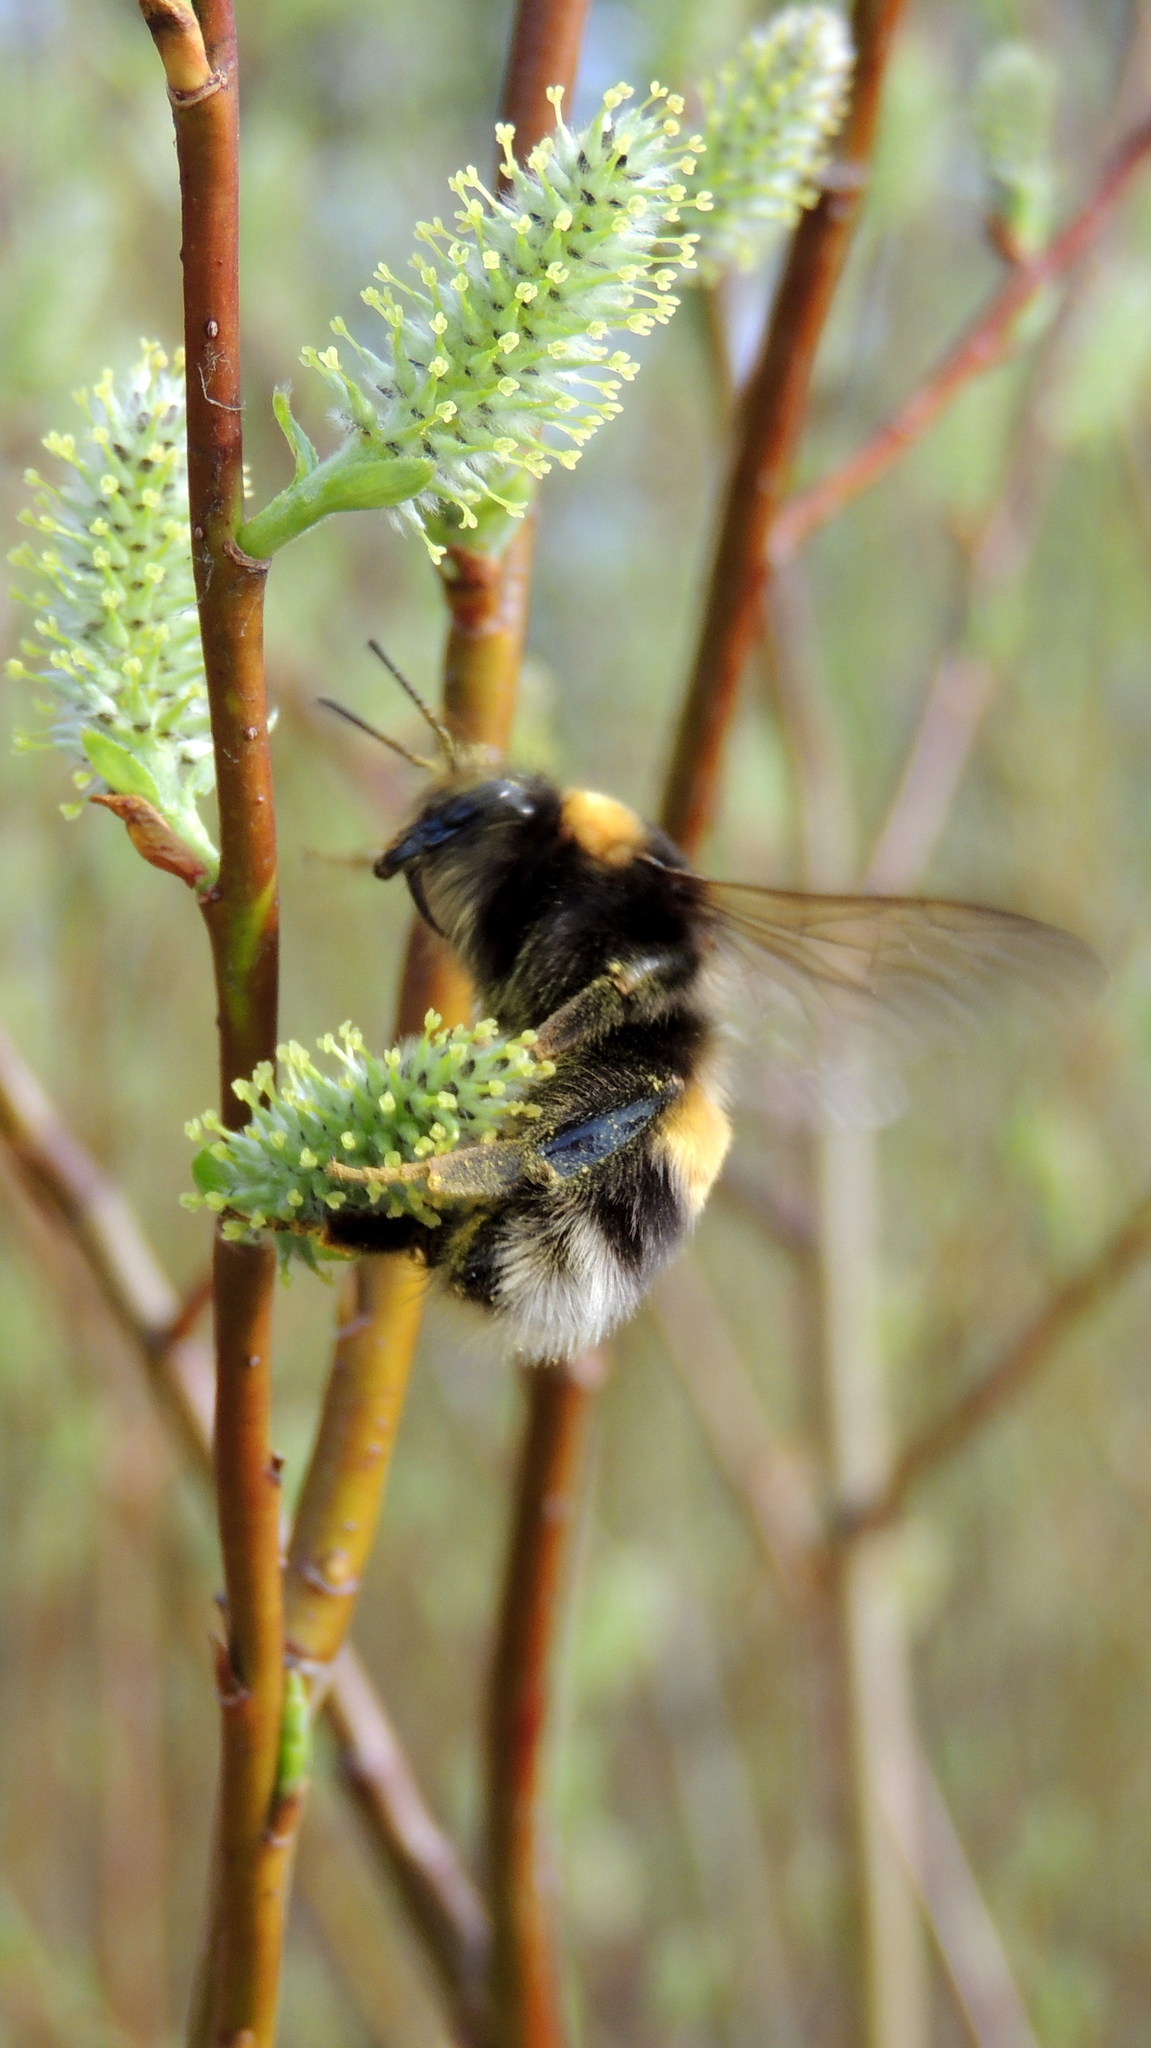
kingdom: Animalia
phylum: Arthropoda
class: Insecta
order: Hymenoptera
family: Apidae
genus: Bombus
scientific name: Bombus
